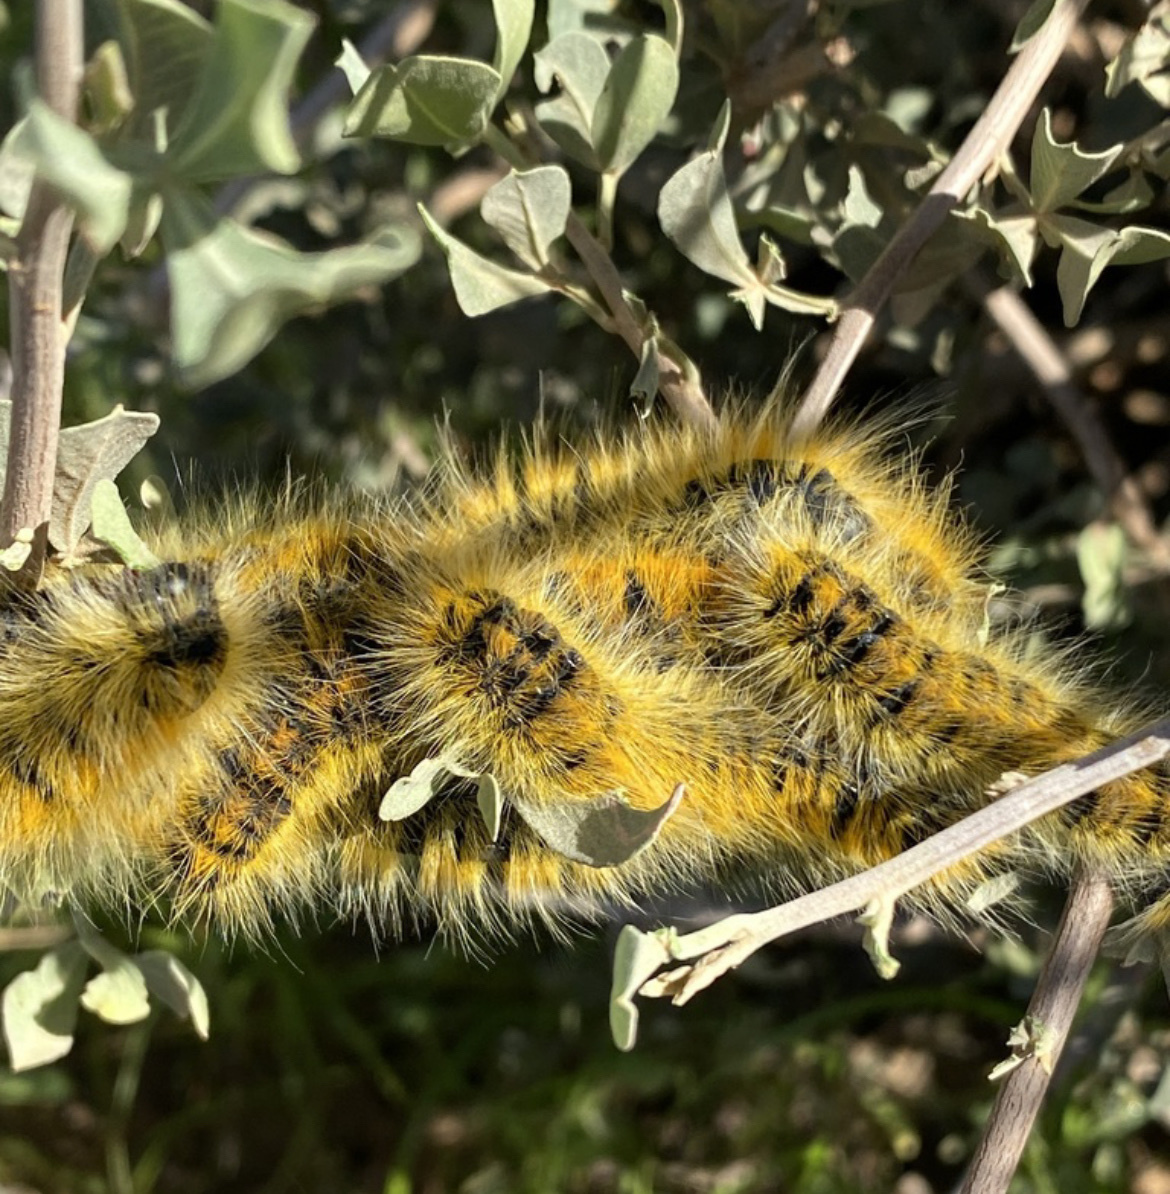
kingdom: Animalia
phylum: Arthropoda
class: Insecta
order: Lepidoptera
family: Lasiocampidae
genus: Bombycomorpha
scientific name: Bombycomorpha dukei
